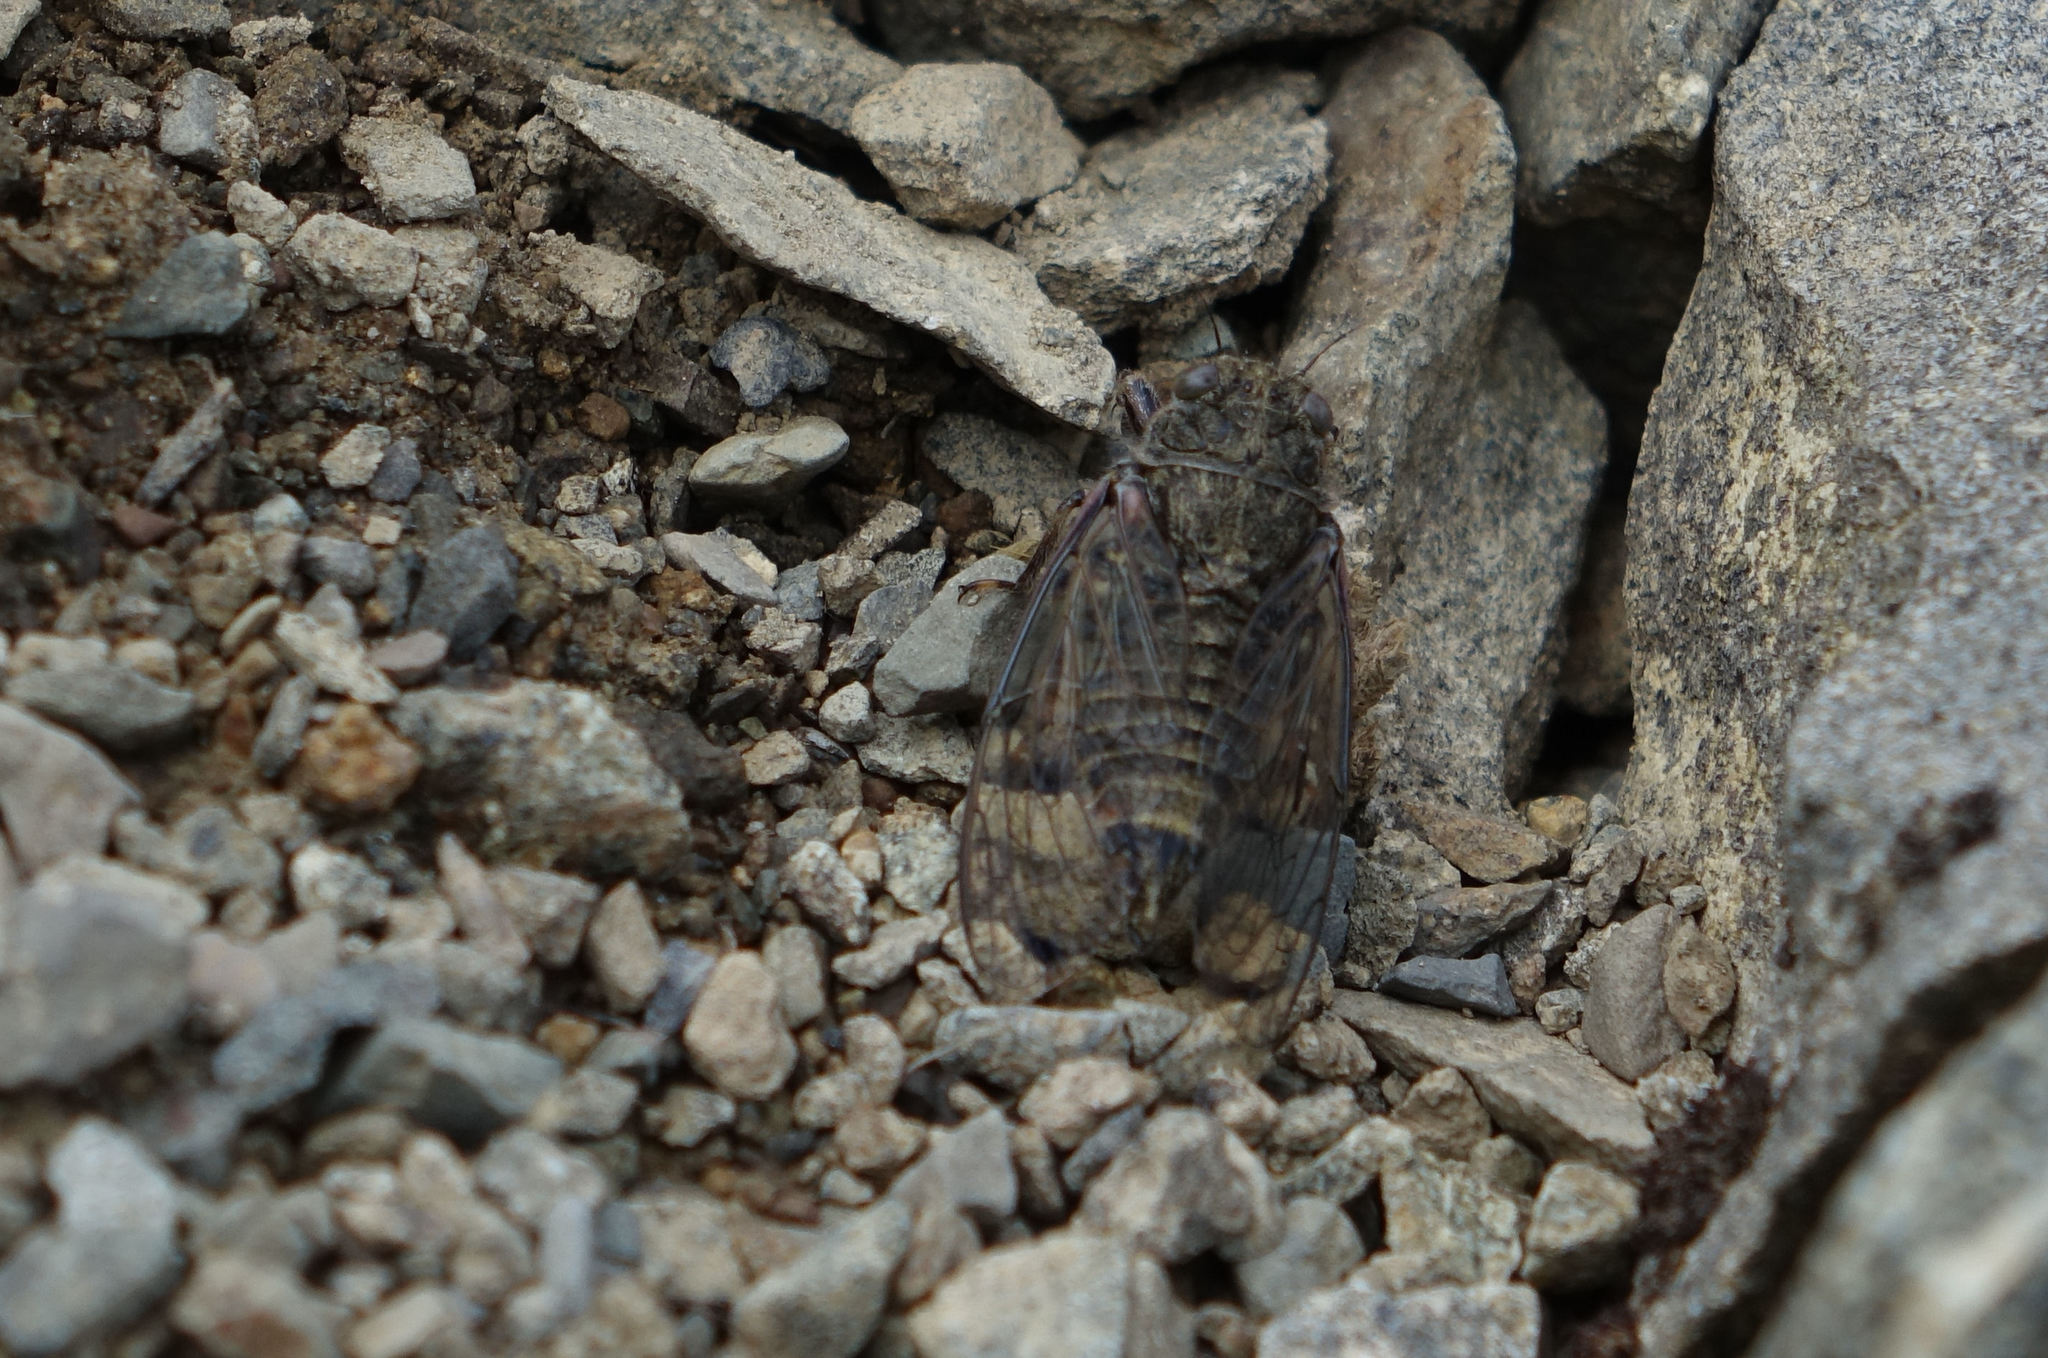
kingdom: Animalia
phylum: Arthropoda
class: Insecta
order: Hemiptera
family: Cicadidae
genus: Maoricicada
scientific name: Maoricicada otagoensis
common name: Otago speargrass cicada
